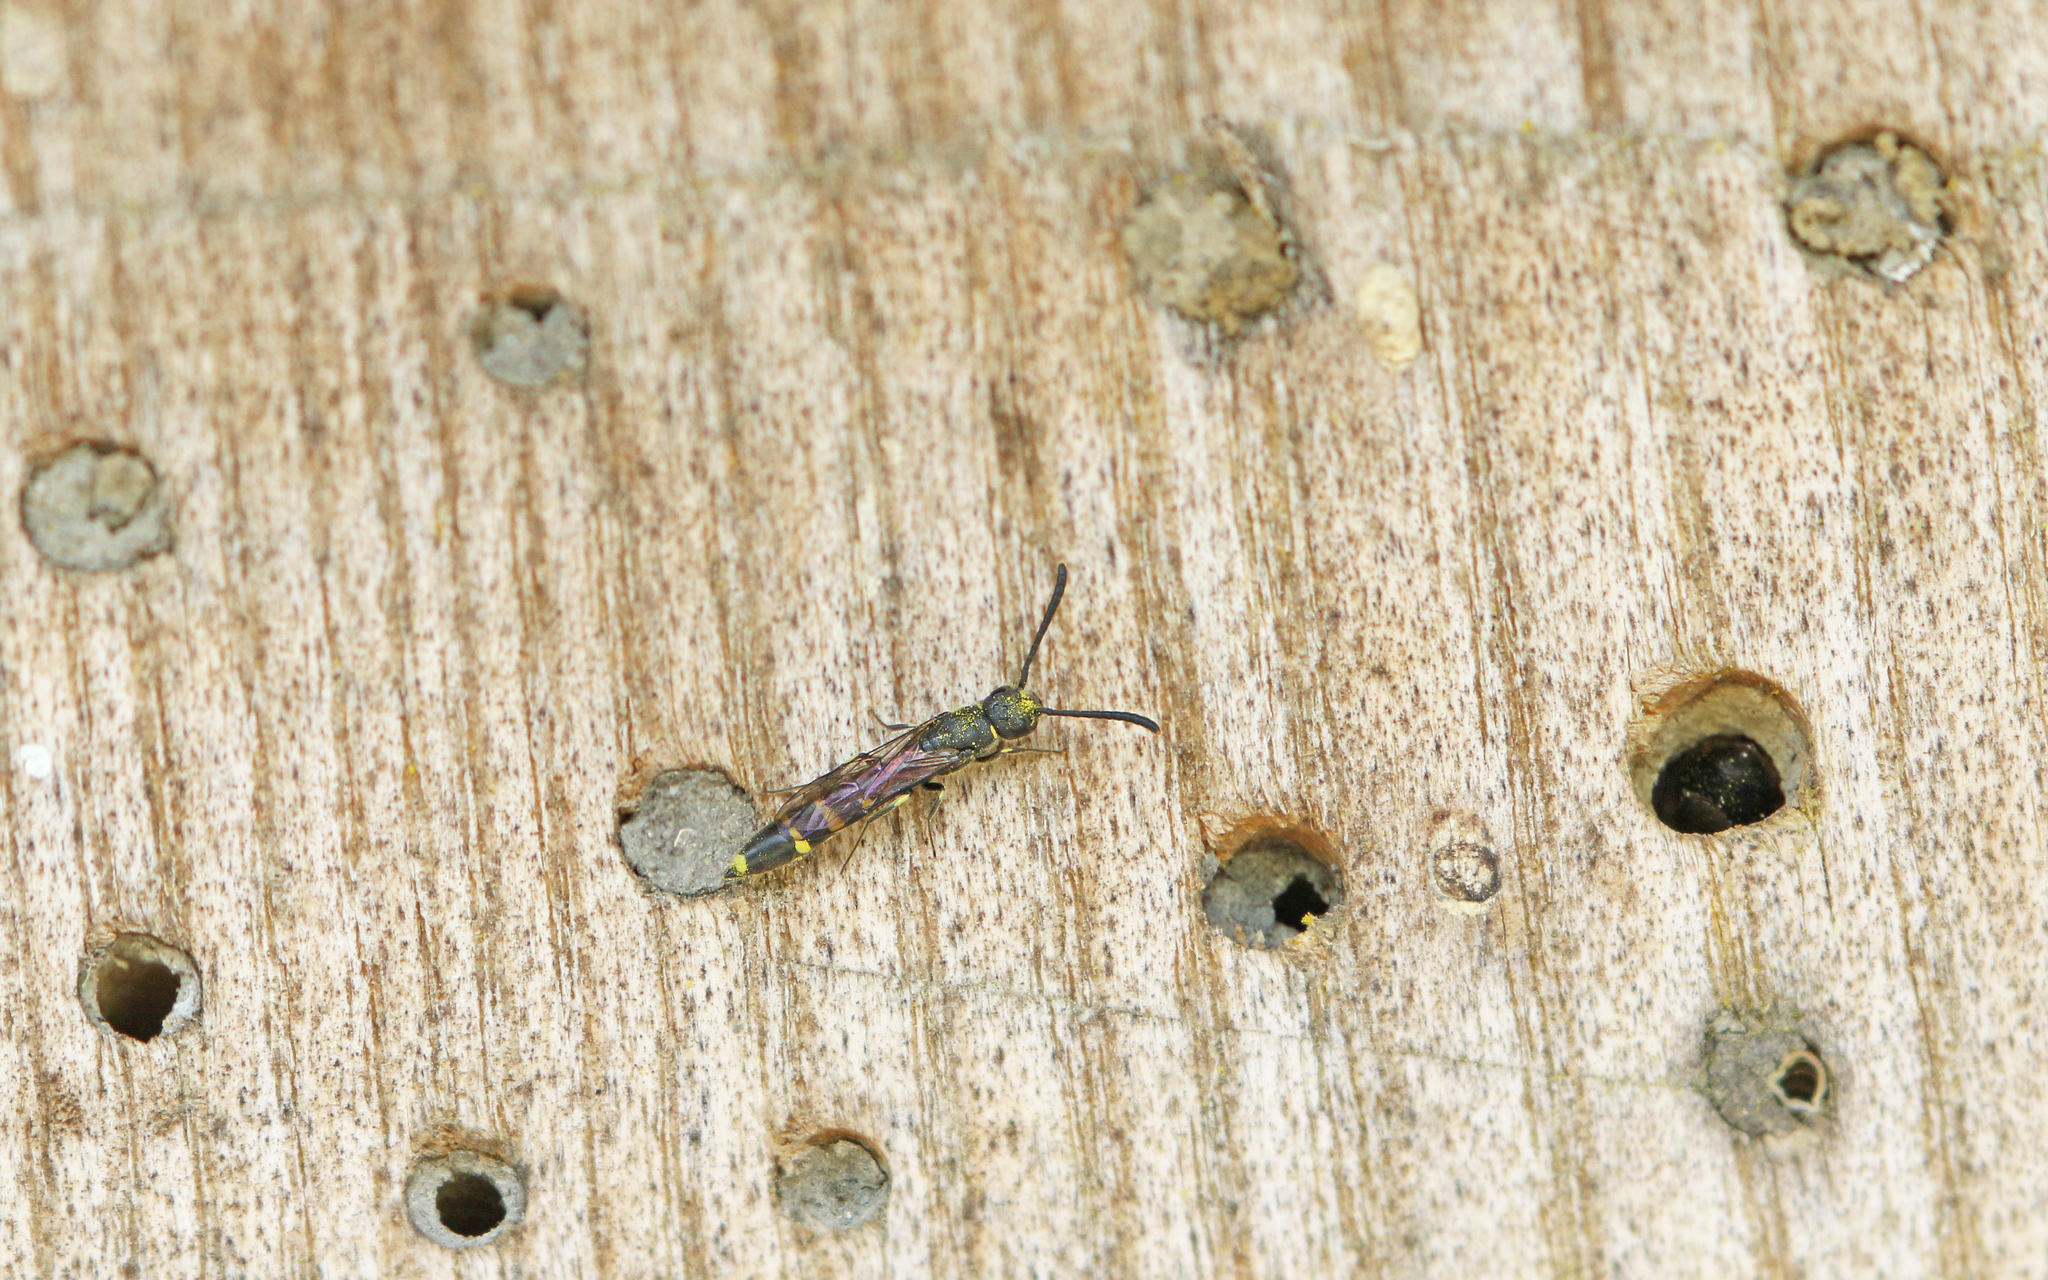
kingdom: Animalia
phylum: Arthropoda
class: Insecta
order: Hymenoptera
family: Sapygidae
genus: Monosapyga
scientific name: Monosapyga clavicornis
